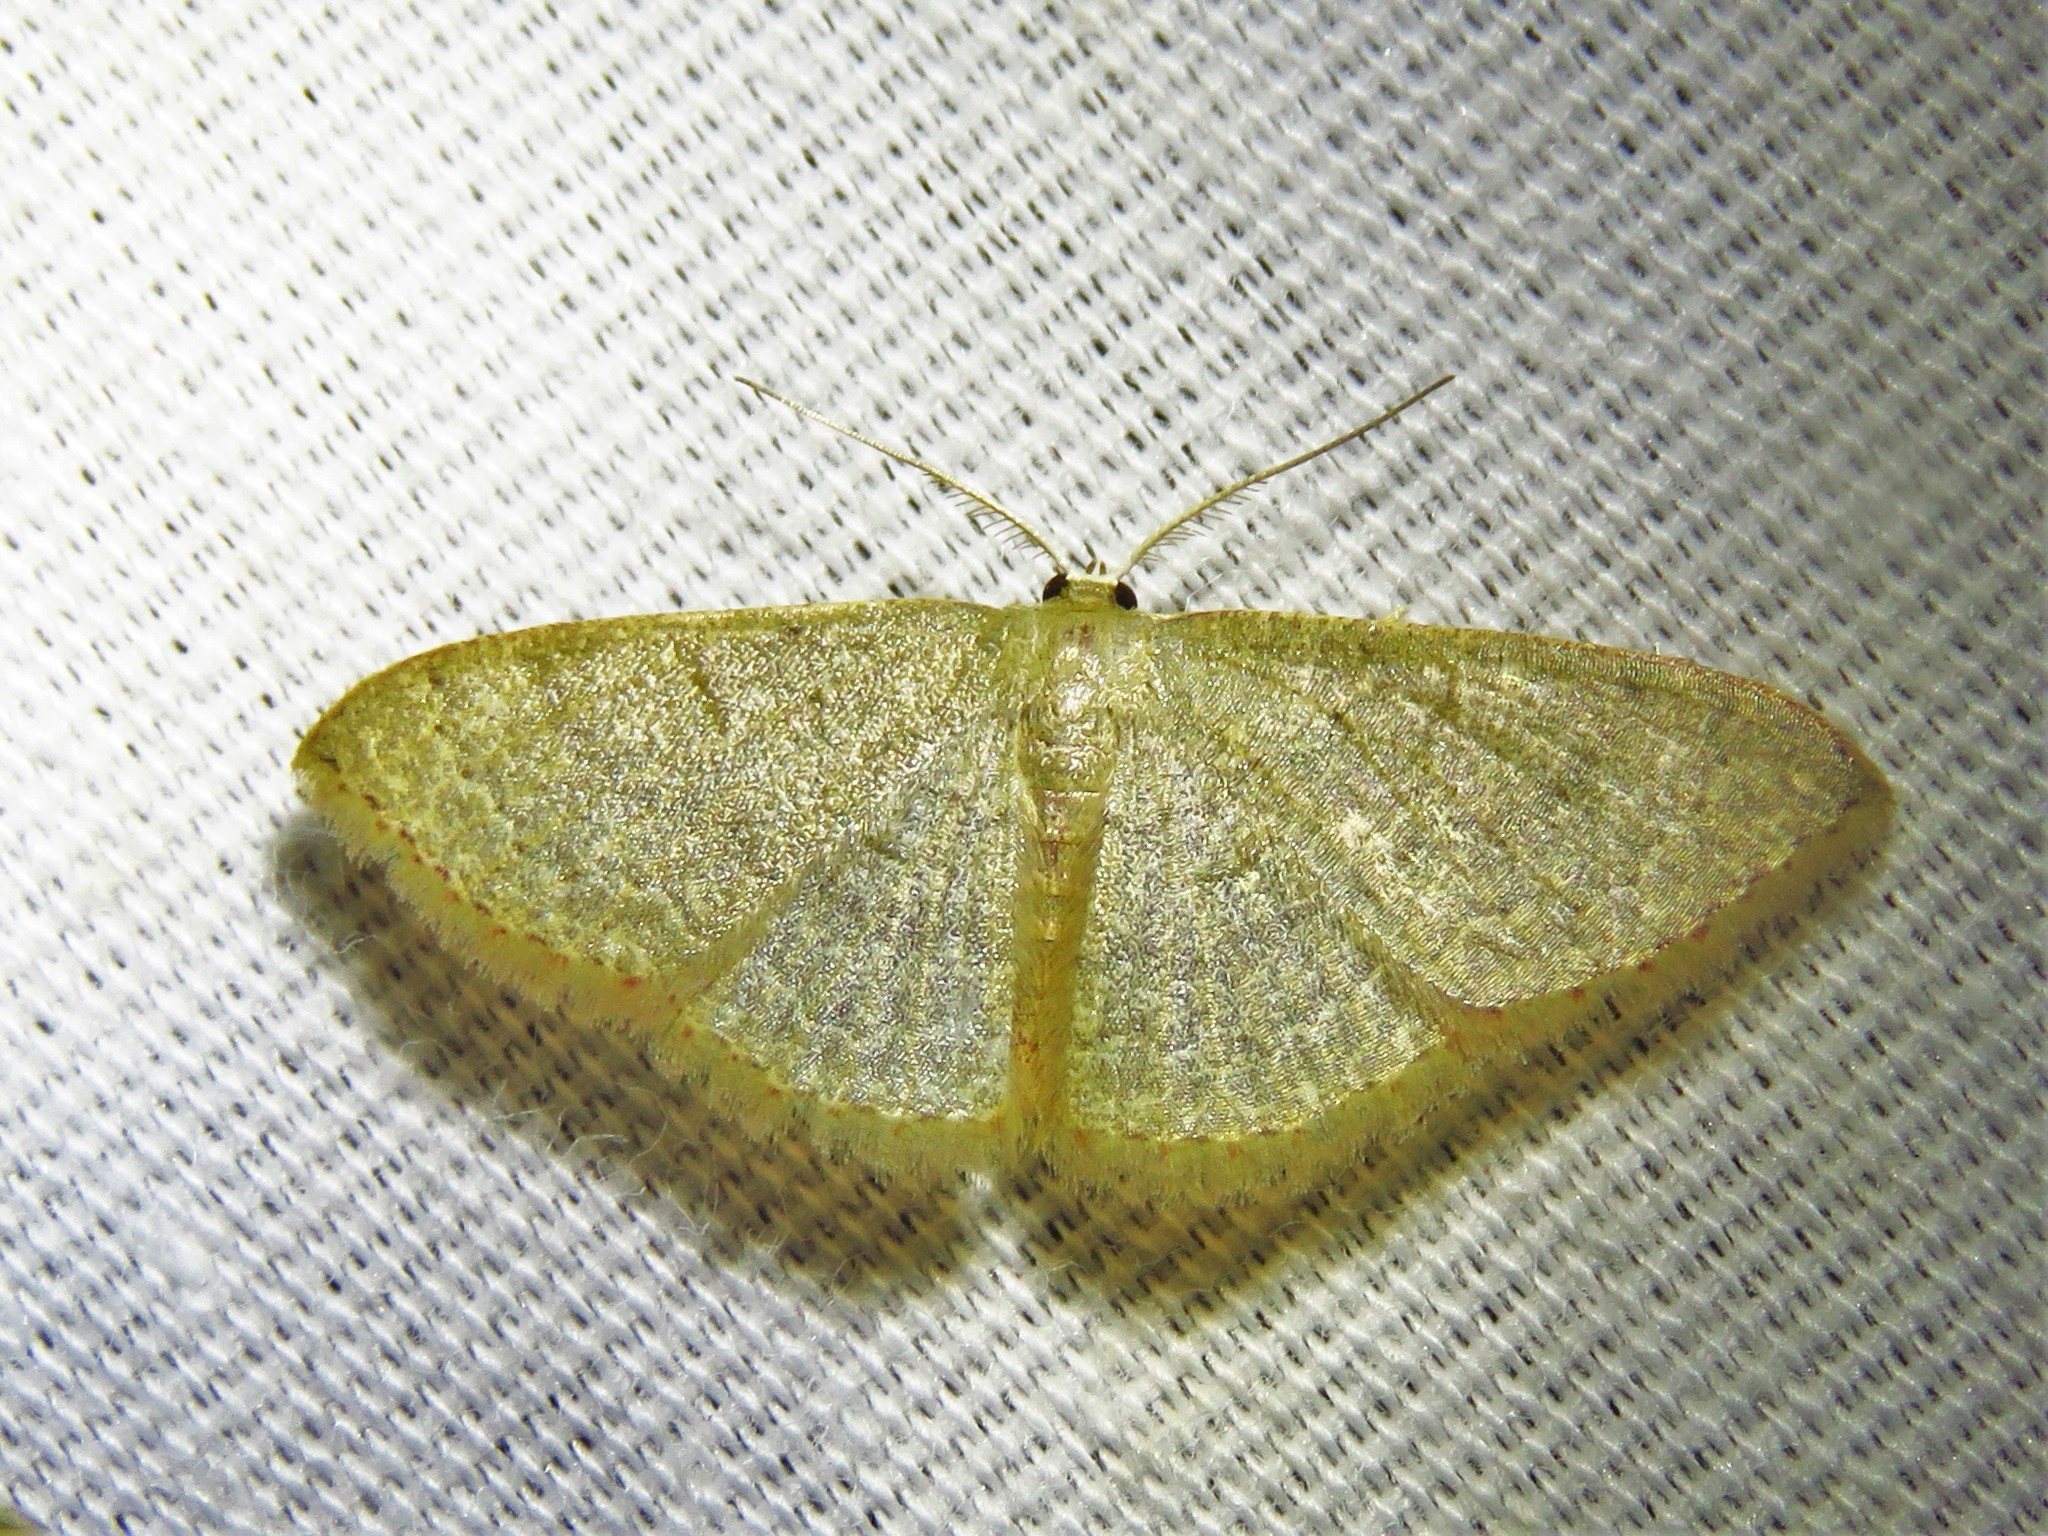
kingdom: Animalia
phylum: Arthropoda
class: Insecta
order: Lepidoptera
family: Geometridae
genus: Pleuroprucha
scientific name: Pleuroprucha insulsaria
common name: Common tan wave
